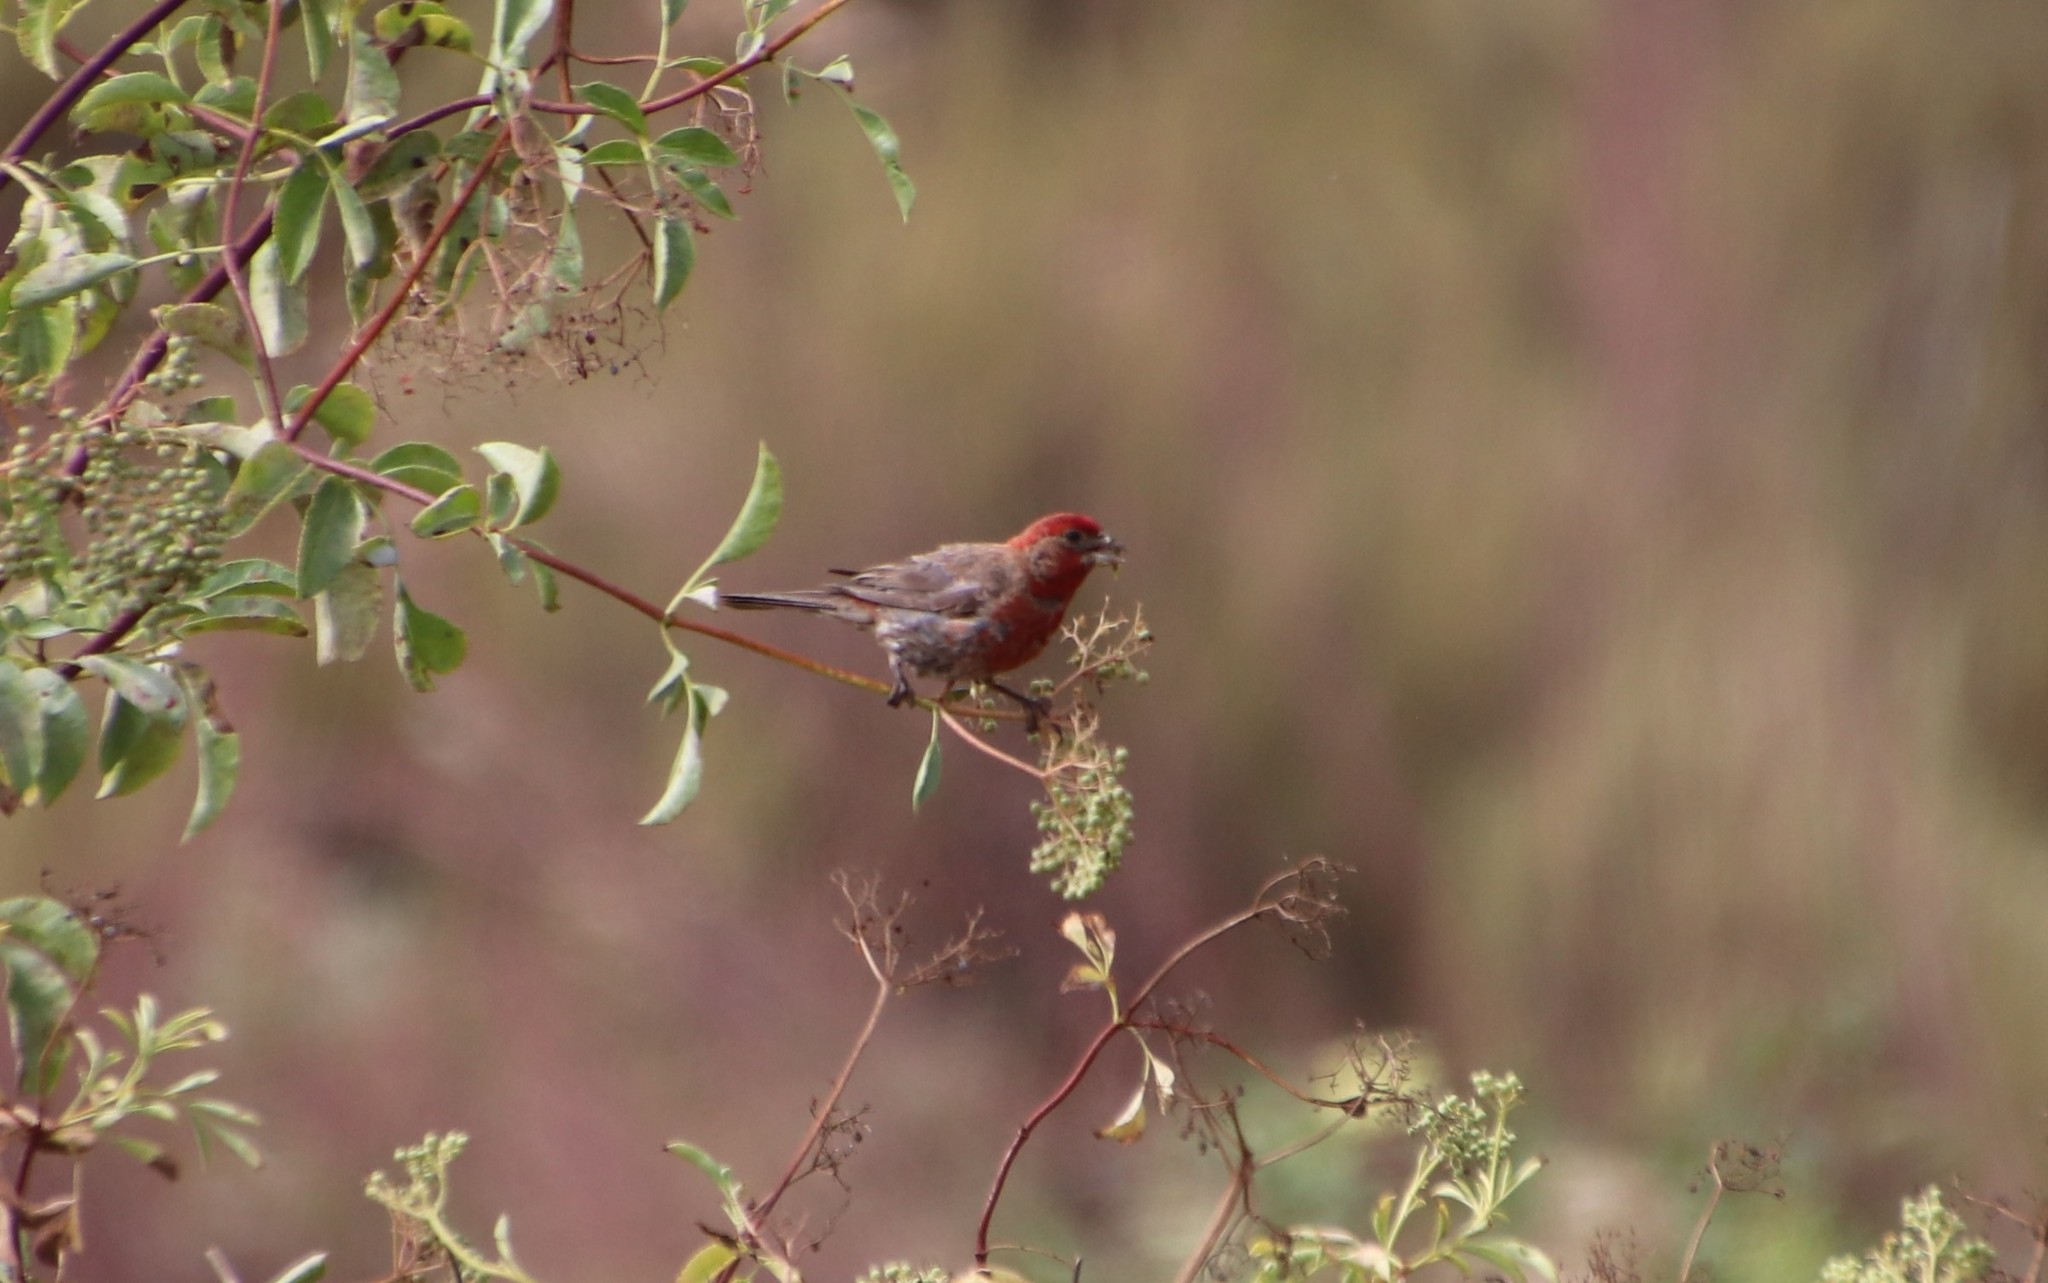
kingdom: Animalia
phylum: Chordata
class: Aves
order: Passeriformes
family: Fringillidae
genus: Haemorhous
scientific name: Haemorhous mexicanus
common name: House finch
